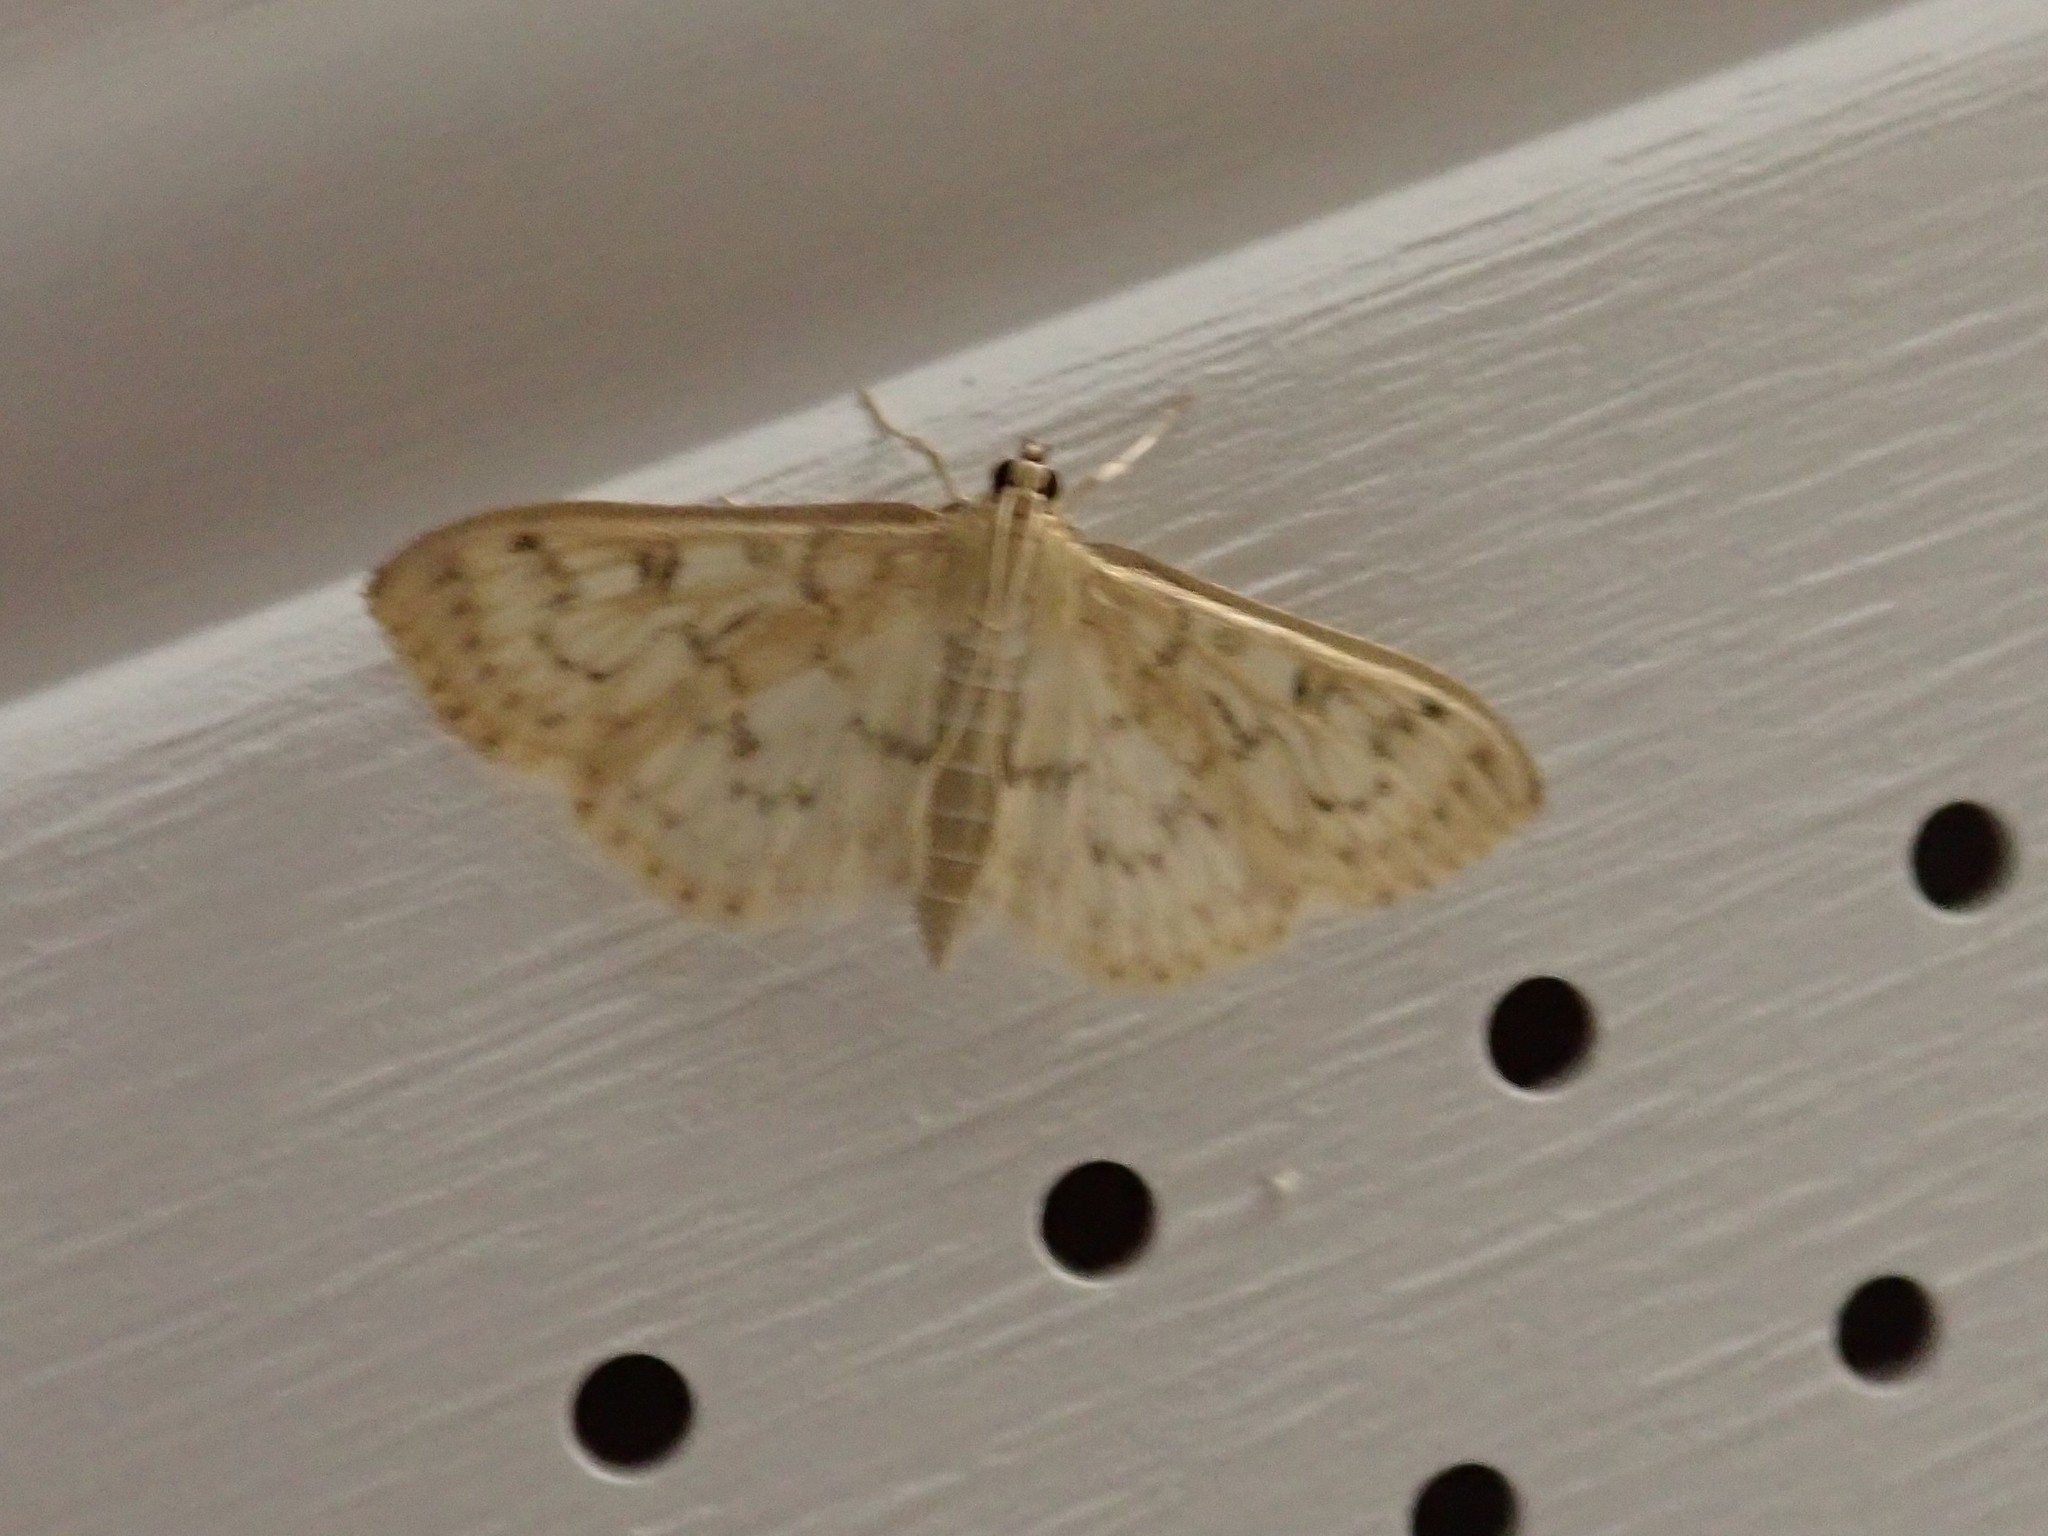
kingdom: Animalia
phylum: Arthropoda
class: Insecta
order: Lepidoptera
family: Crambidae
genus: Herpetogramma
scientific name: Herpetogramma aquilonalis
